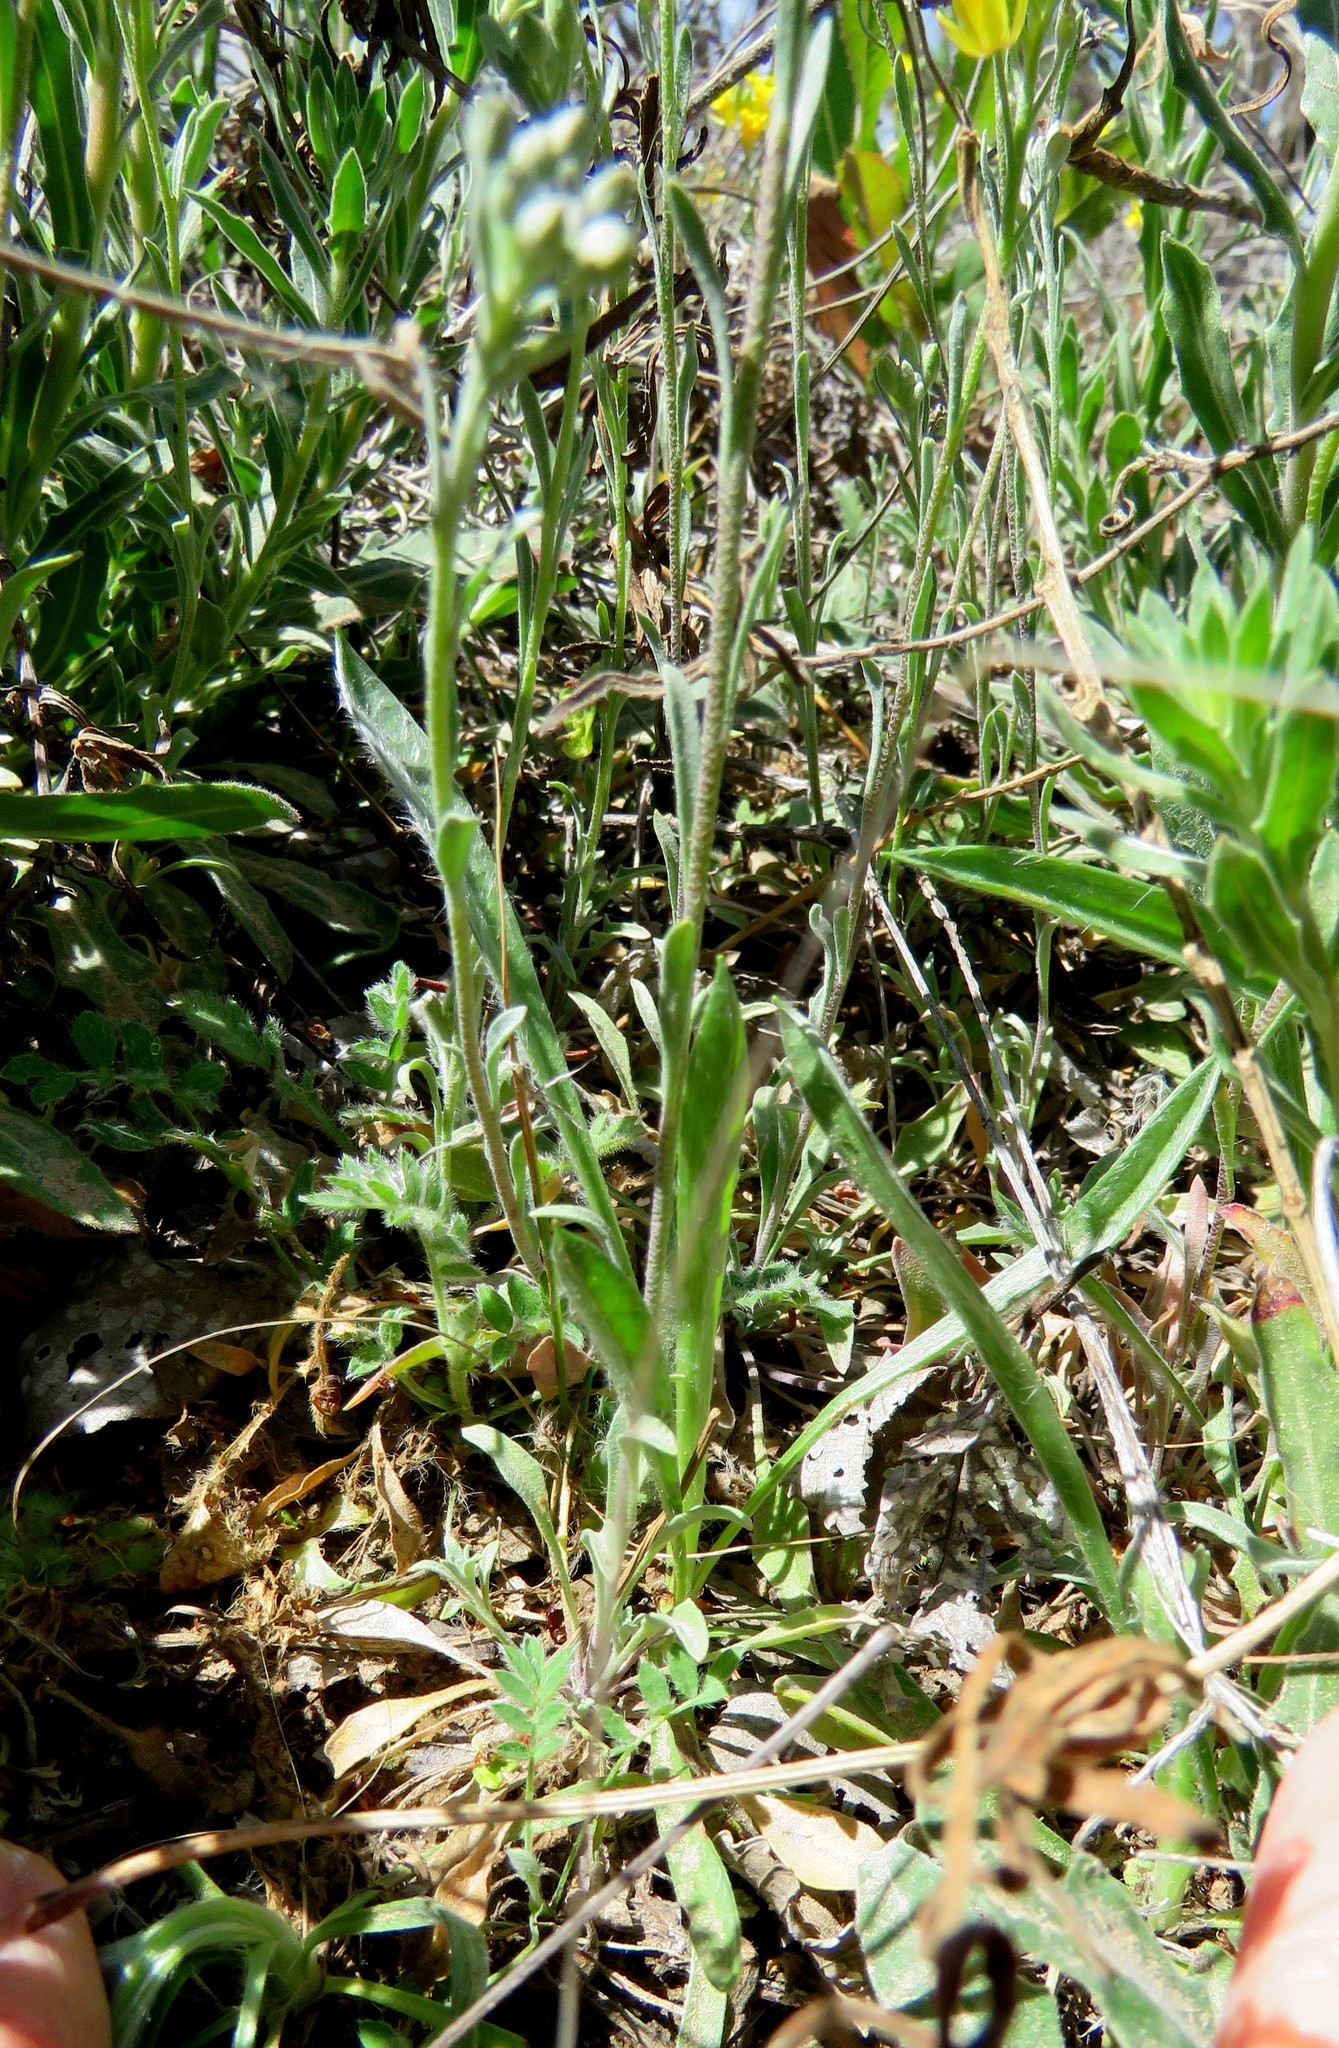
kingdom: Plantae
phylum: Tracheophyta
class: Magnoliopsida
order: Brassicales
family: Brassicaceae
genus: Physaria
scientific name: Physaria gordonii
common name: Gordon's bladderpod
